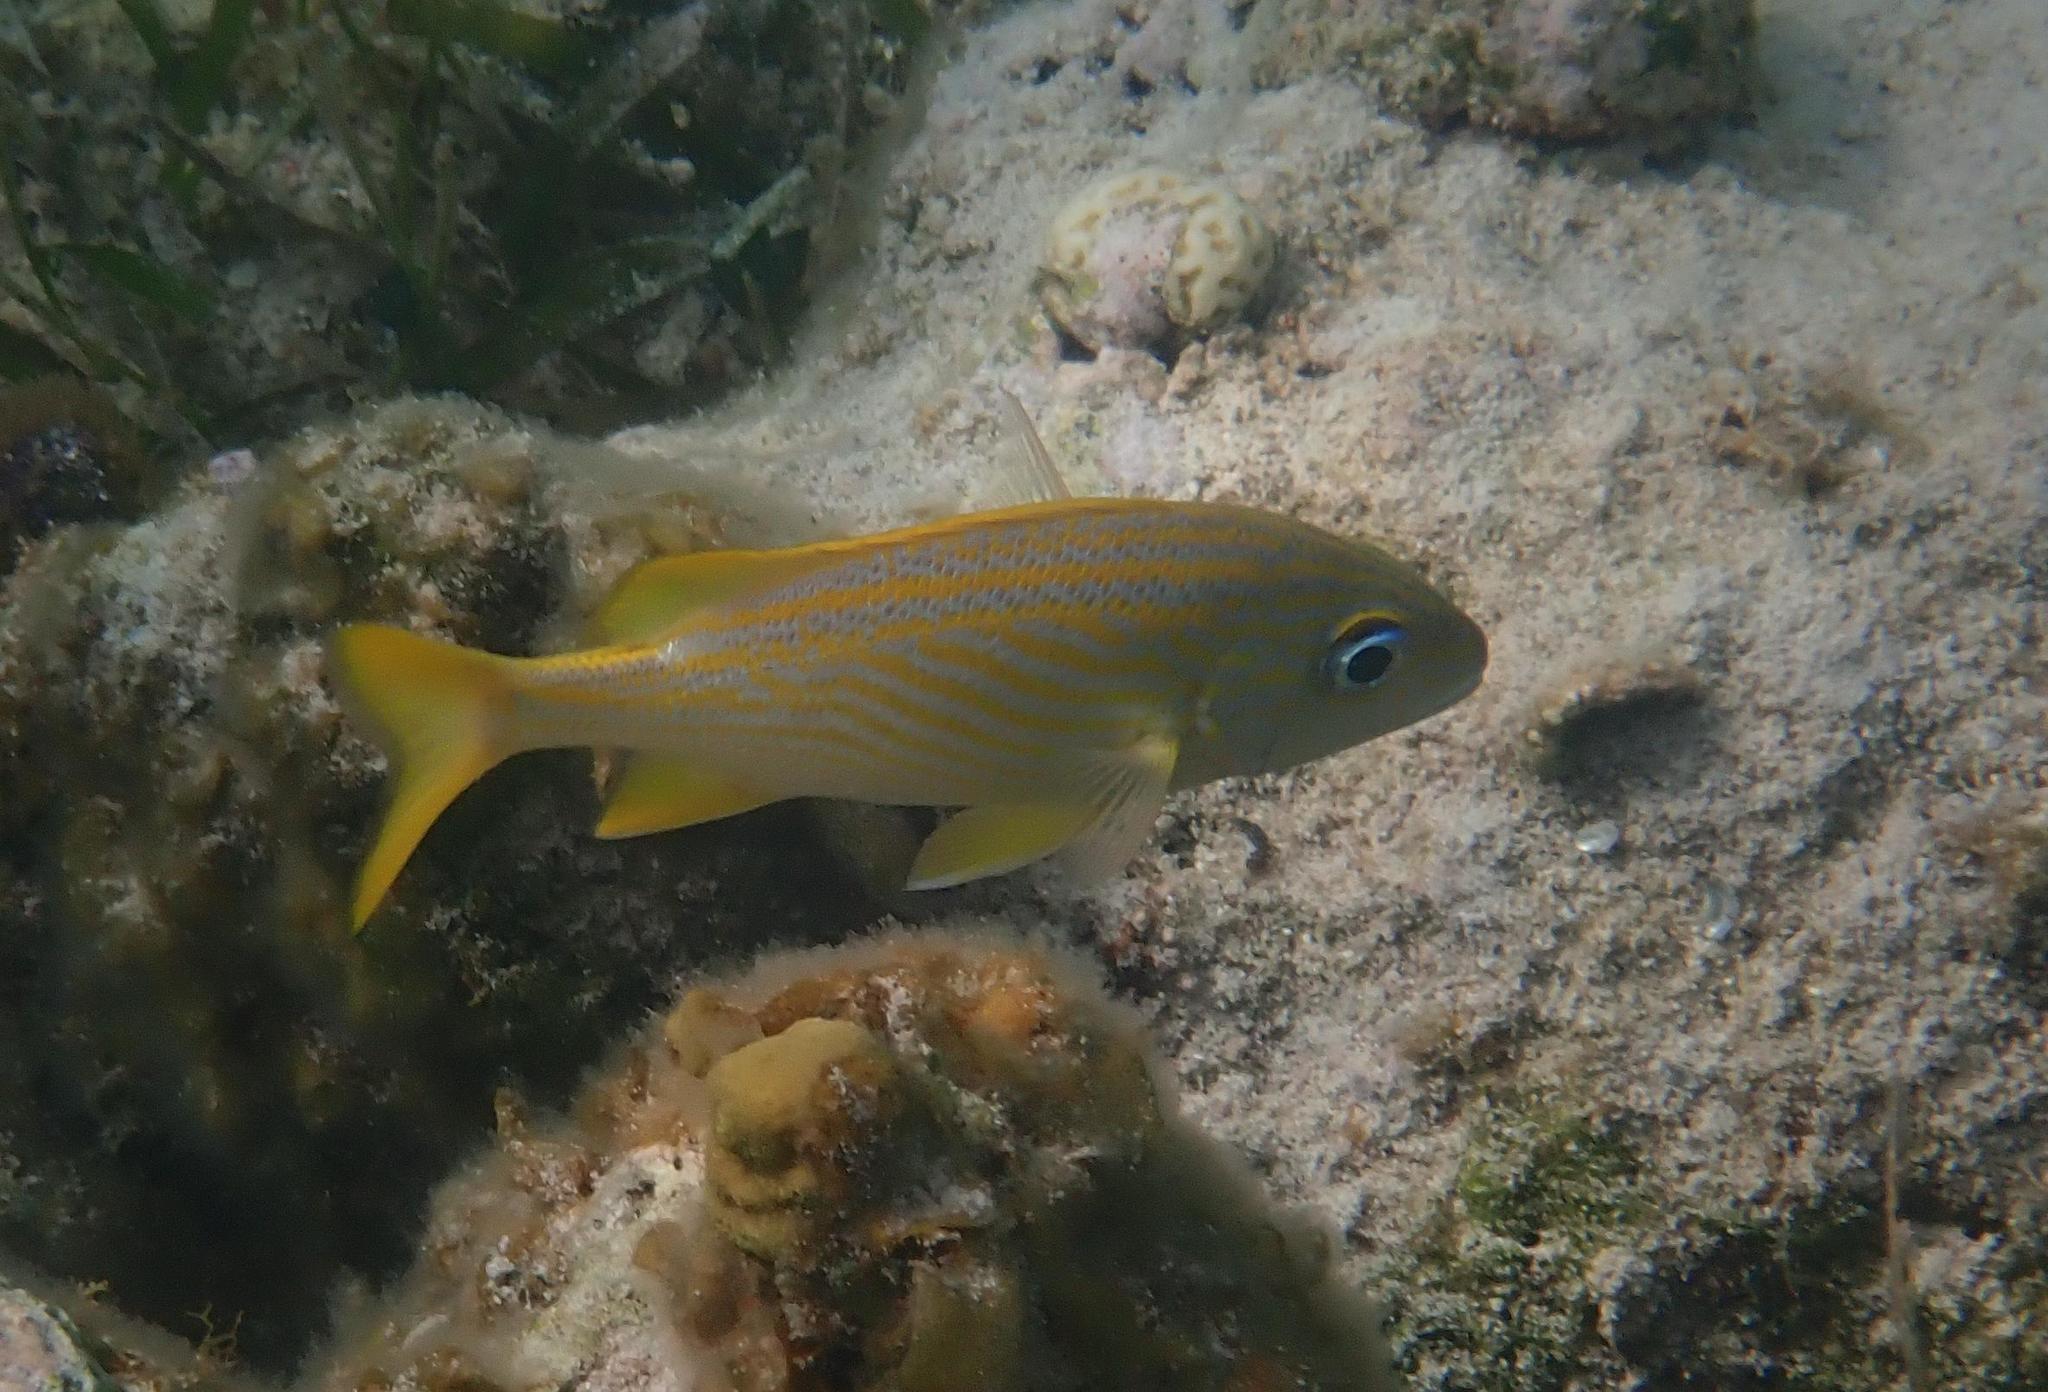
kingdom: Animalia
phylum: Chordata
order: Perciformes
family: Haemulidae
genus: Haemulon
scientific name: Haemulon flavolineatum
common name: French grunt
